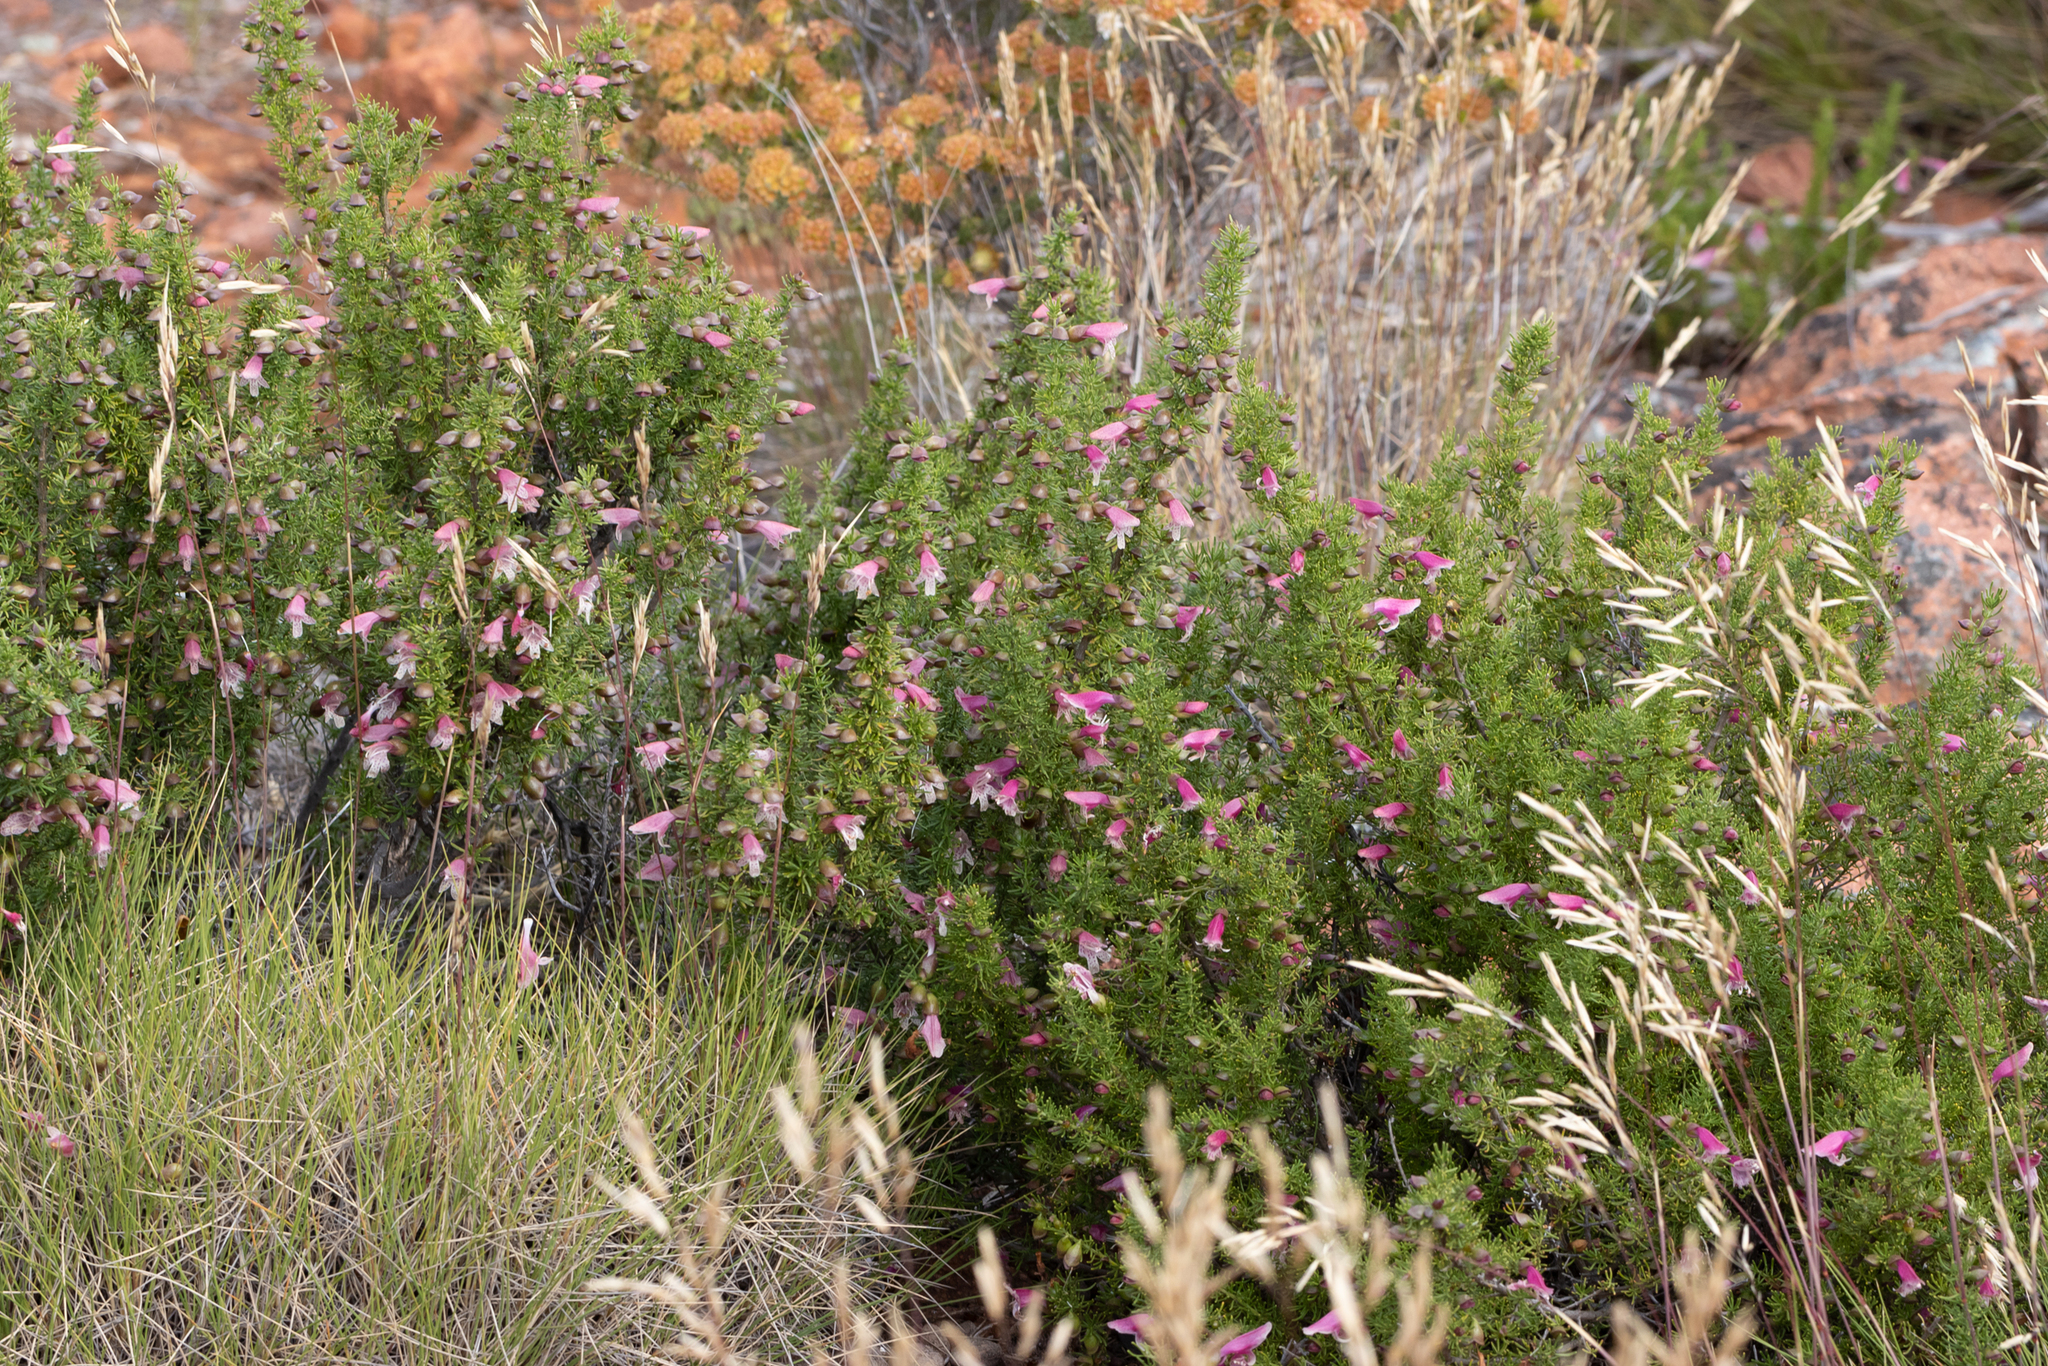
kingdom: Plantae
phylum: Tracheophyta
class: Magnoliopsida
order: Lamiales
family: Lamiaceae
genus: Prostanthera
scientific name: Prostanthera florifera
